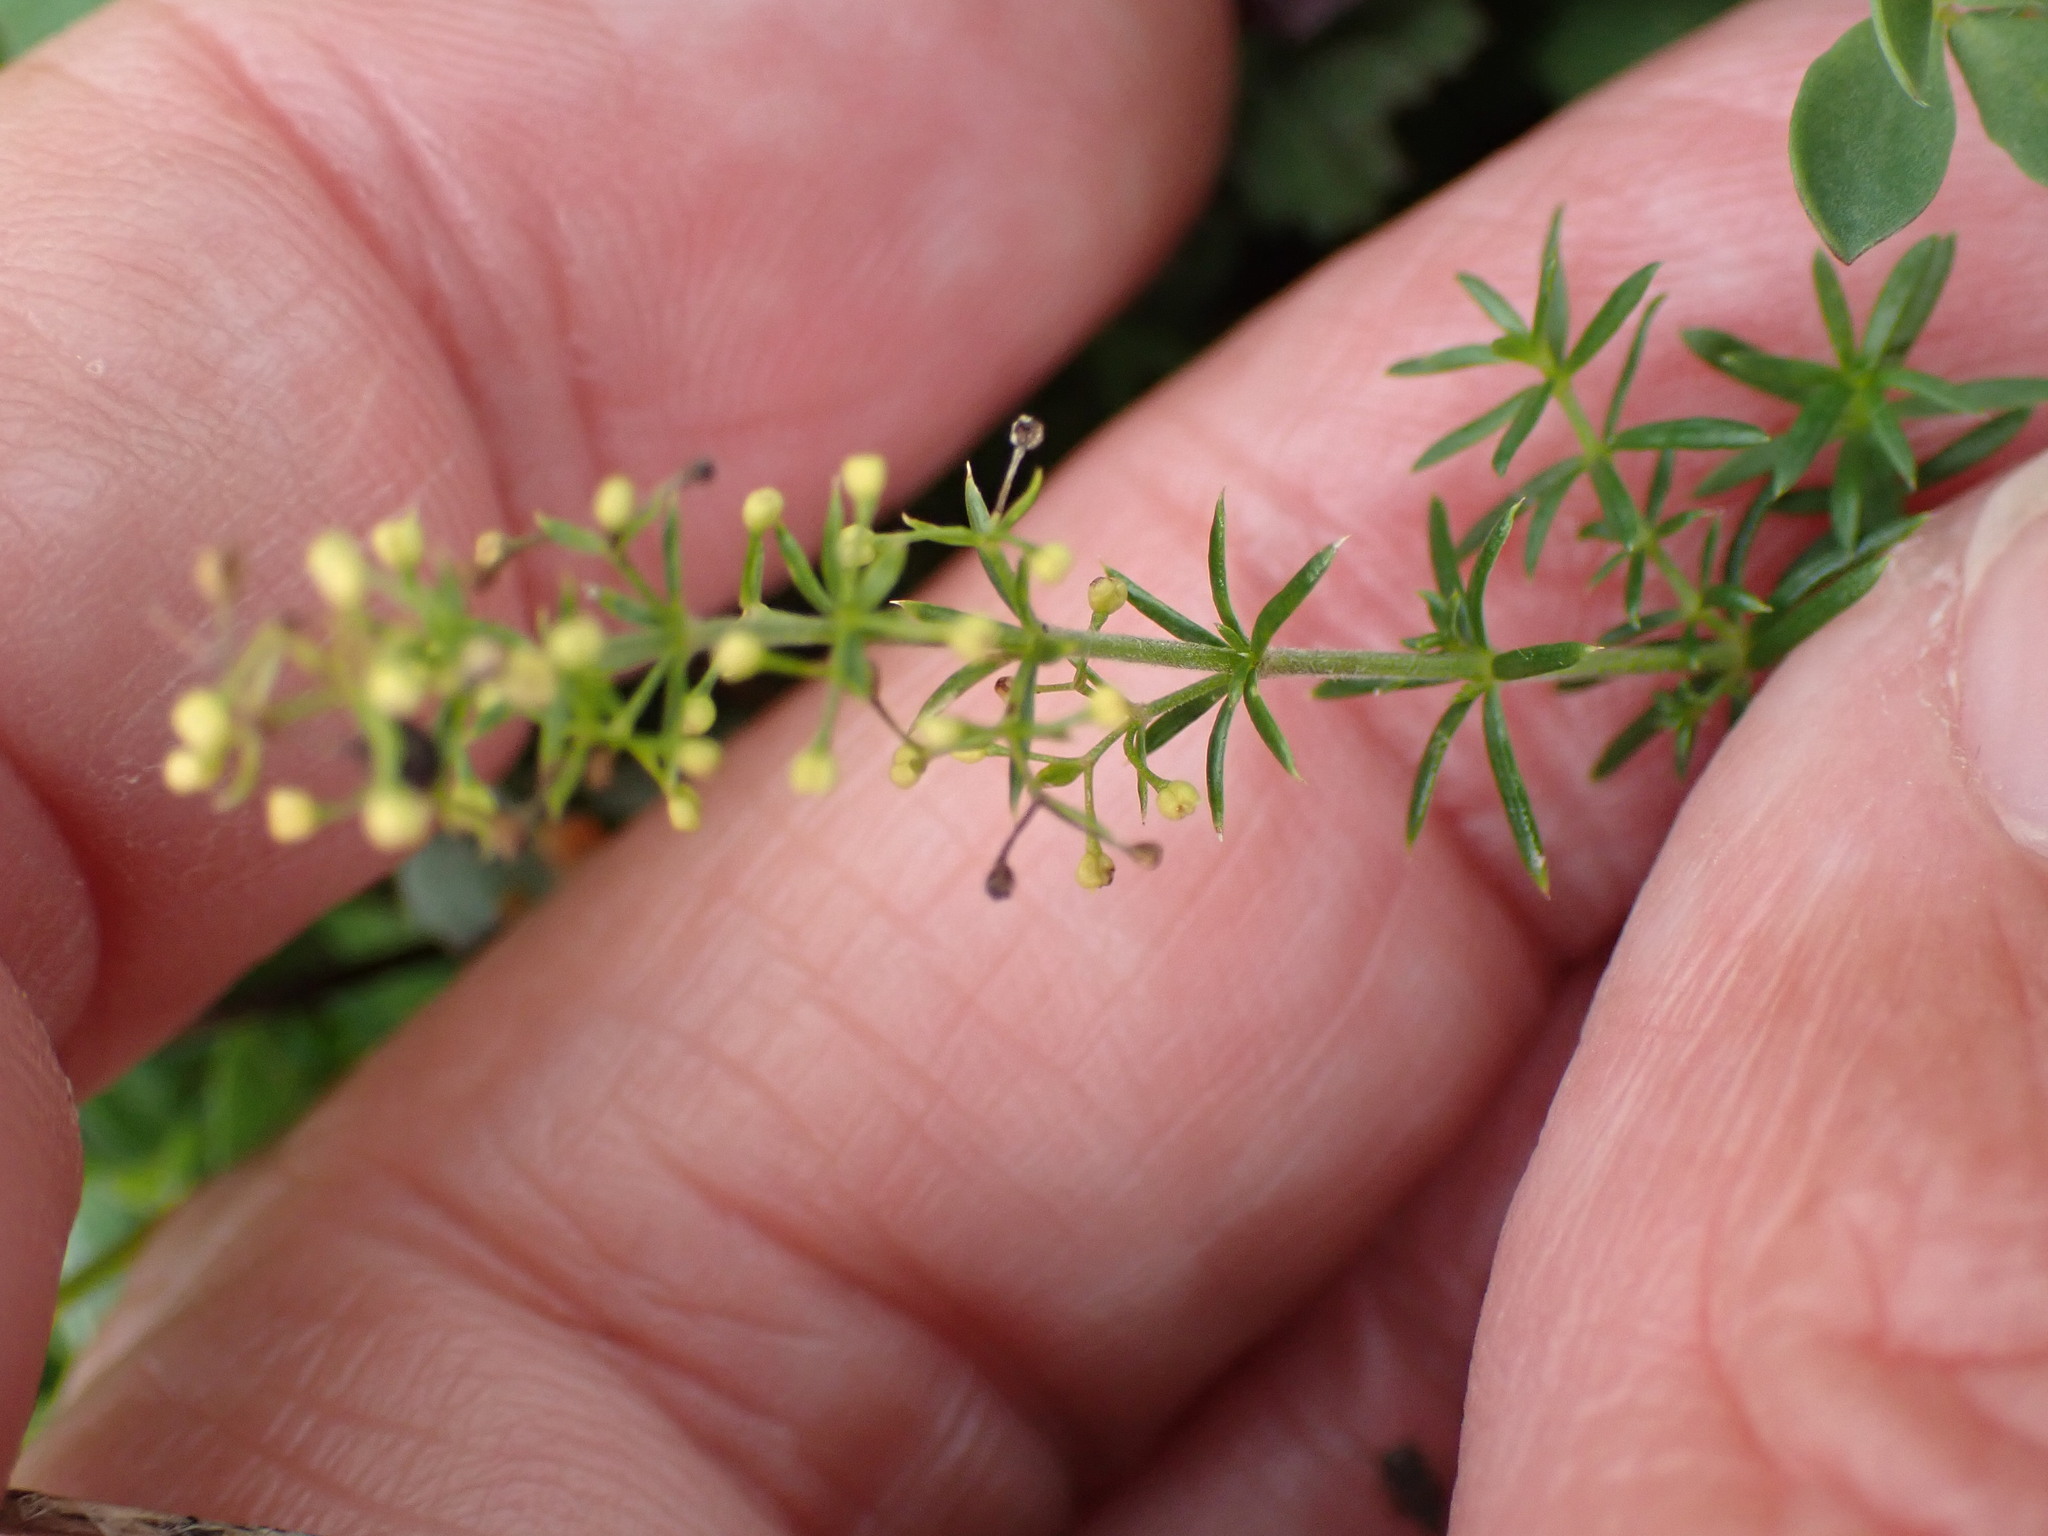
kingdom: Plantae
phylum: Tracheophyta
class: Magnoliopsida
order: Gentianales
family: Rubiaceae
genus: Galium
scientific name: Galium verum
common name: Lady's bedstraw
